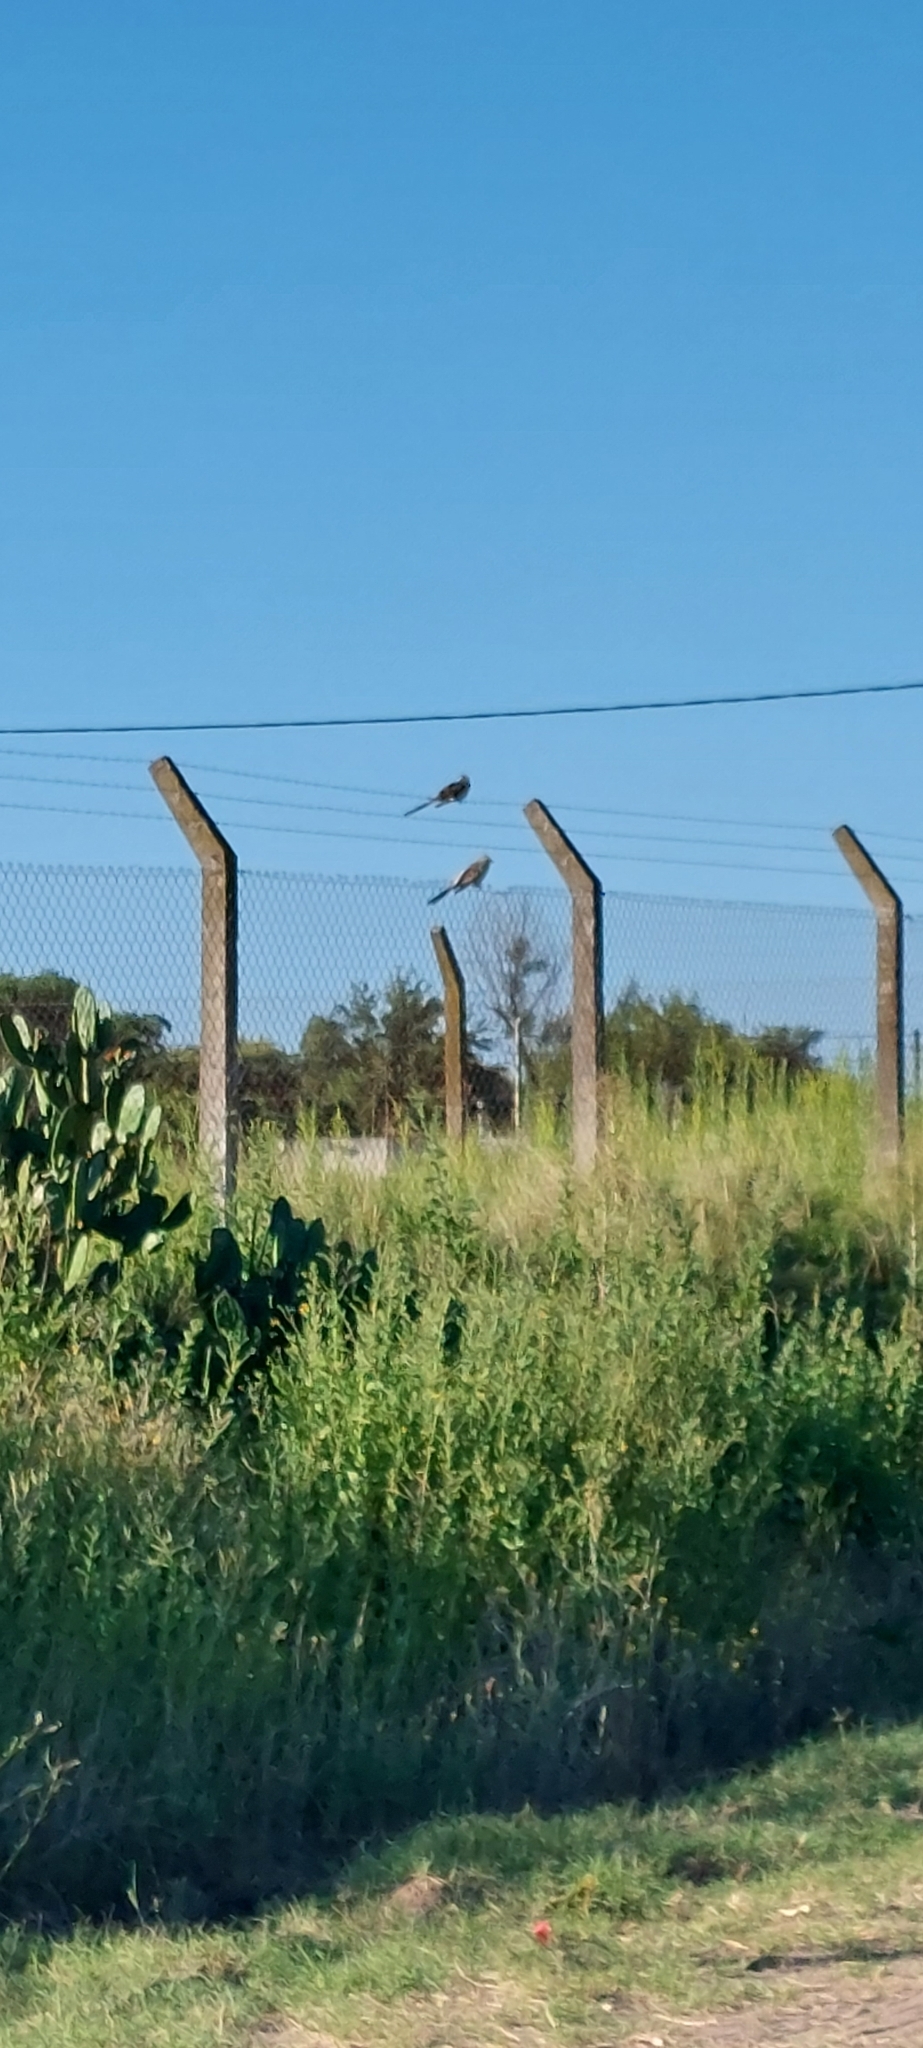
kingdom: Animalia
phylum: Chordata
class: Aves
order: Cuculiformes
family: Cuculidae
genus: Guira
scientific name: Guira guira
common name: Guira cuckoo
